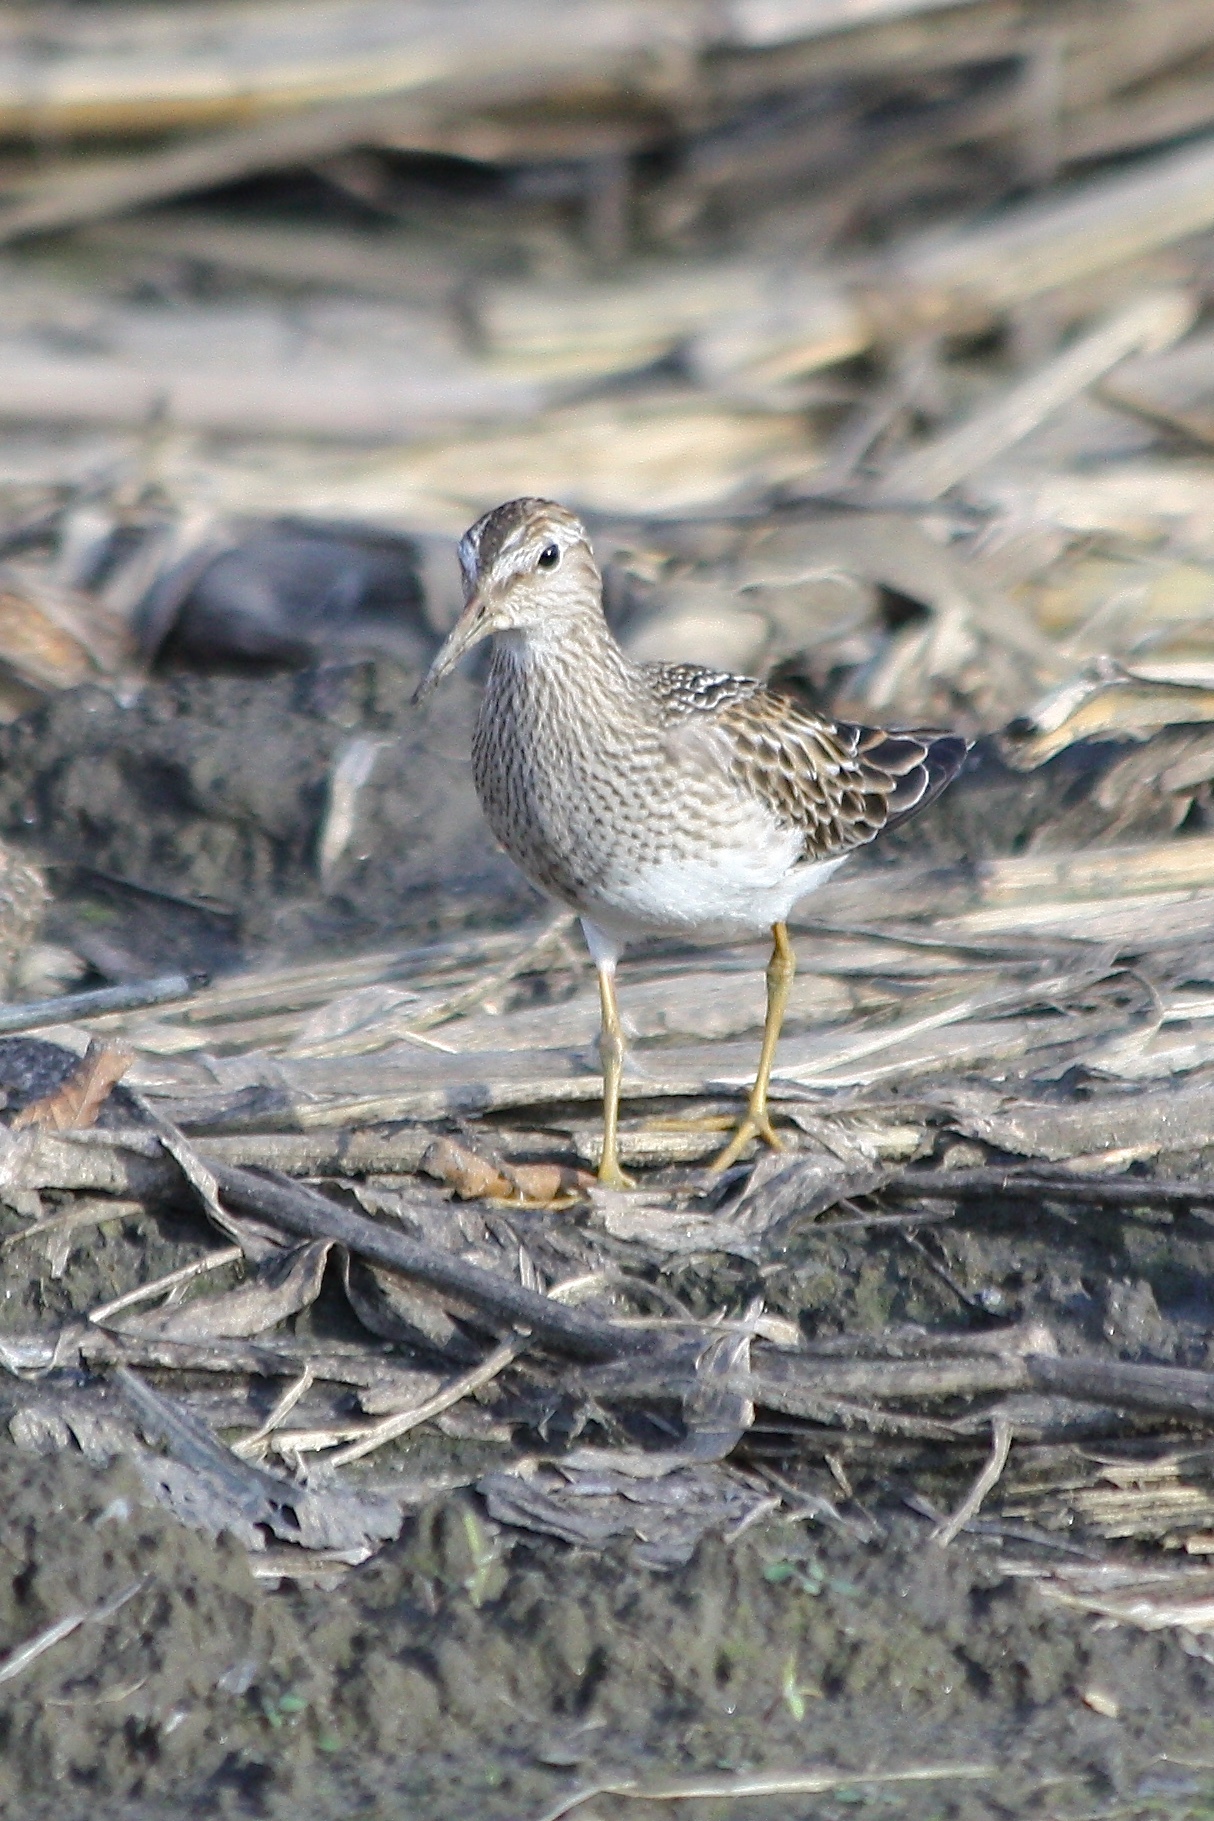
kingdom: Animalia
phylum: Chordata
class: Aves
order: Charadriiformes
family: Scolopacidae
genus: Calidris
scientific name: Calidris melanotos
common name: Pectoral sandpiper
